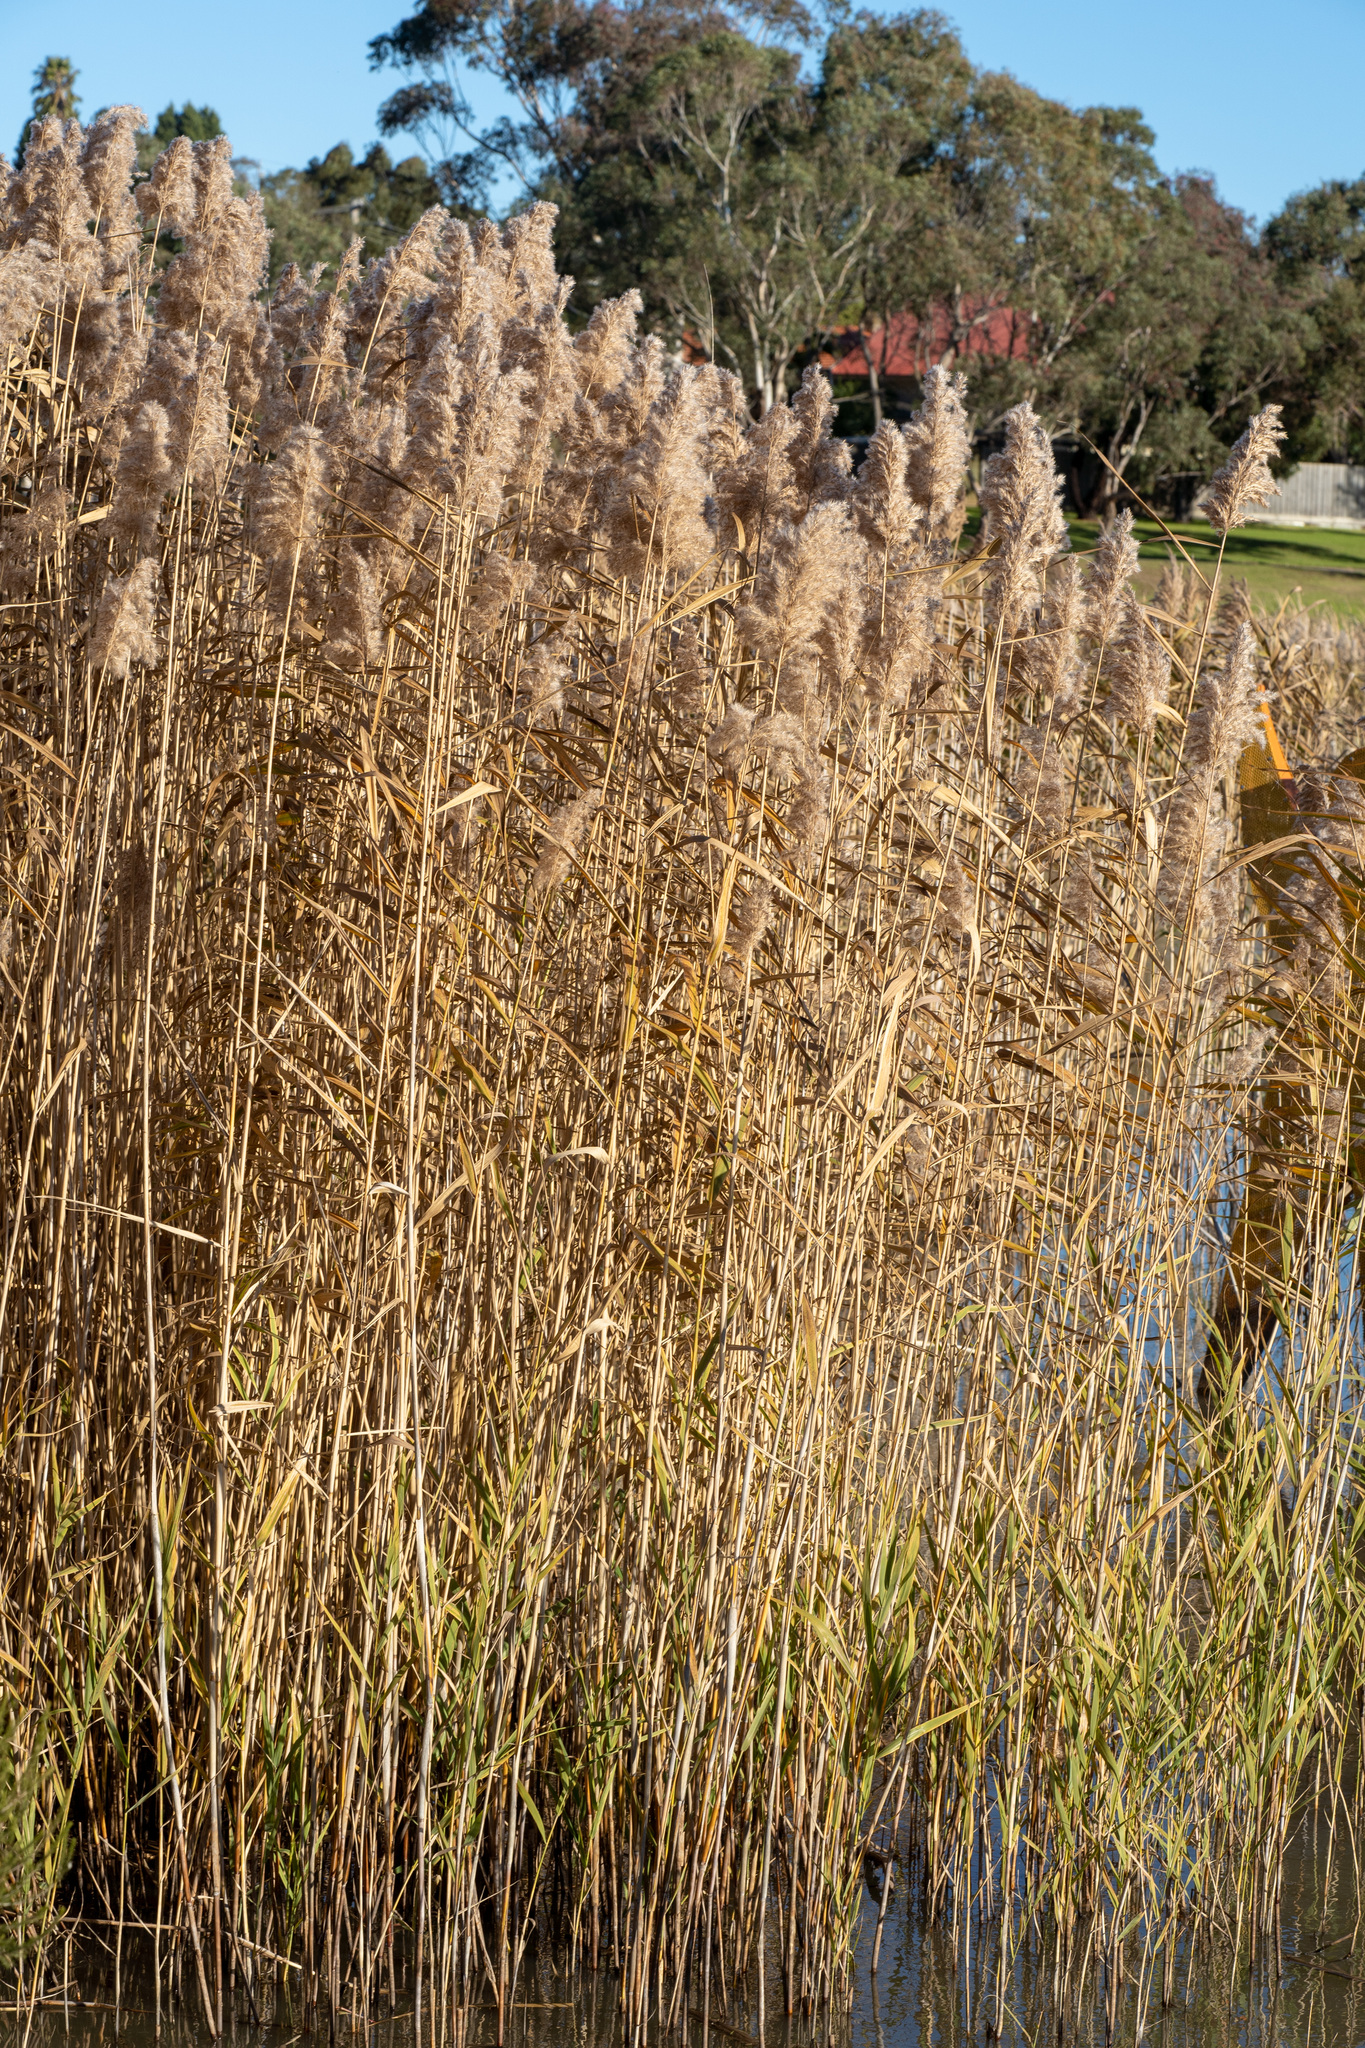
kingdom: Plantae
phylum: Tracheophyta
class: Liliopsida
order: Poales
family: Poaceae
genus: Phragmites
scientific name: Phragmites australis
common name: Common reed
